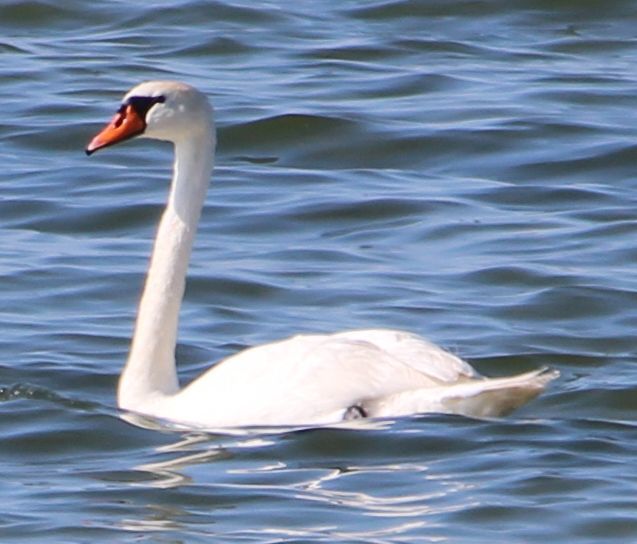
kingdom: Animalia
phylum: Chordata
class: Aves
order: Anseriformes
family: Anatidae
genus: Cygnus
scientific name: Cygnus olor
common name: Mute swan
